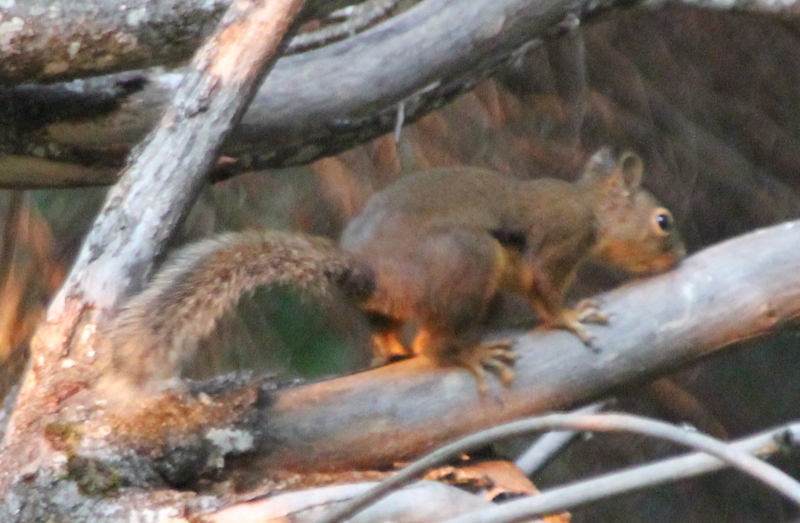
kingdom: Animalia
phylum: Chordata
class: Mammalia
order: Rodentia
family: Sciuridae
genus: Tamiasciurus
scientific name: Tamiasciurus douglasii
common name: Douglas's squirrel
